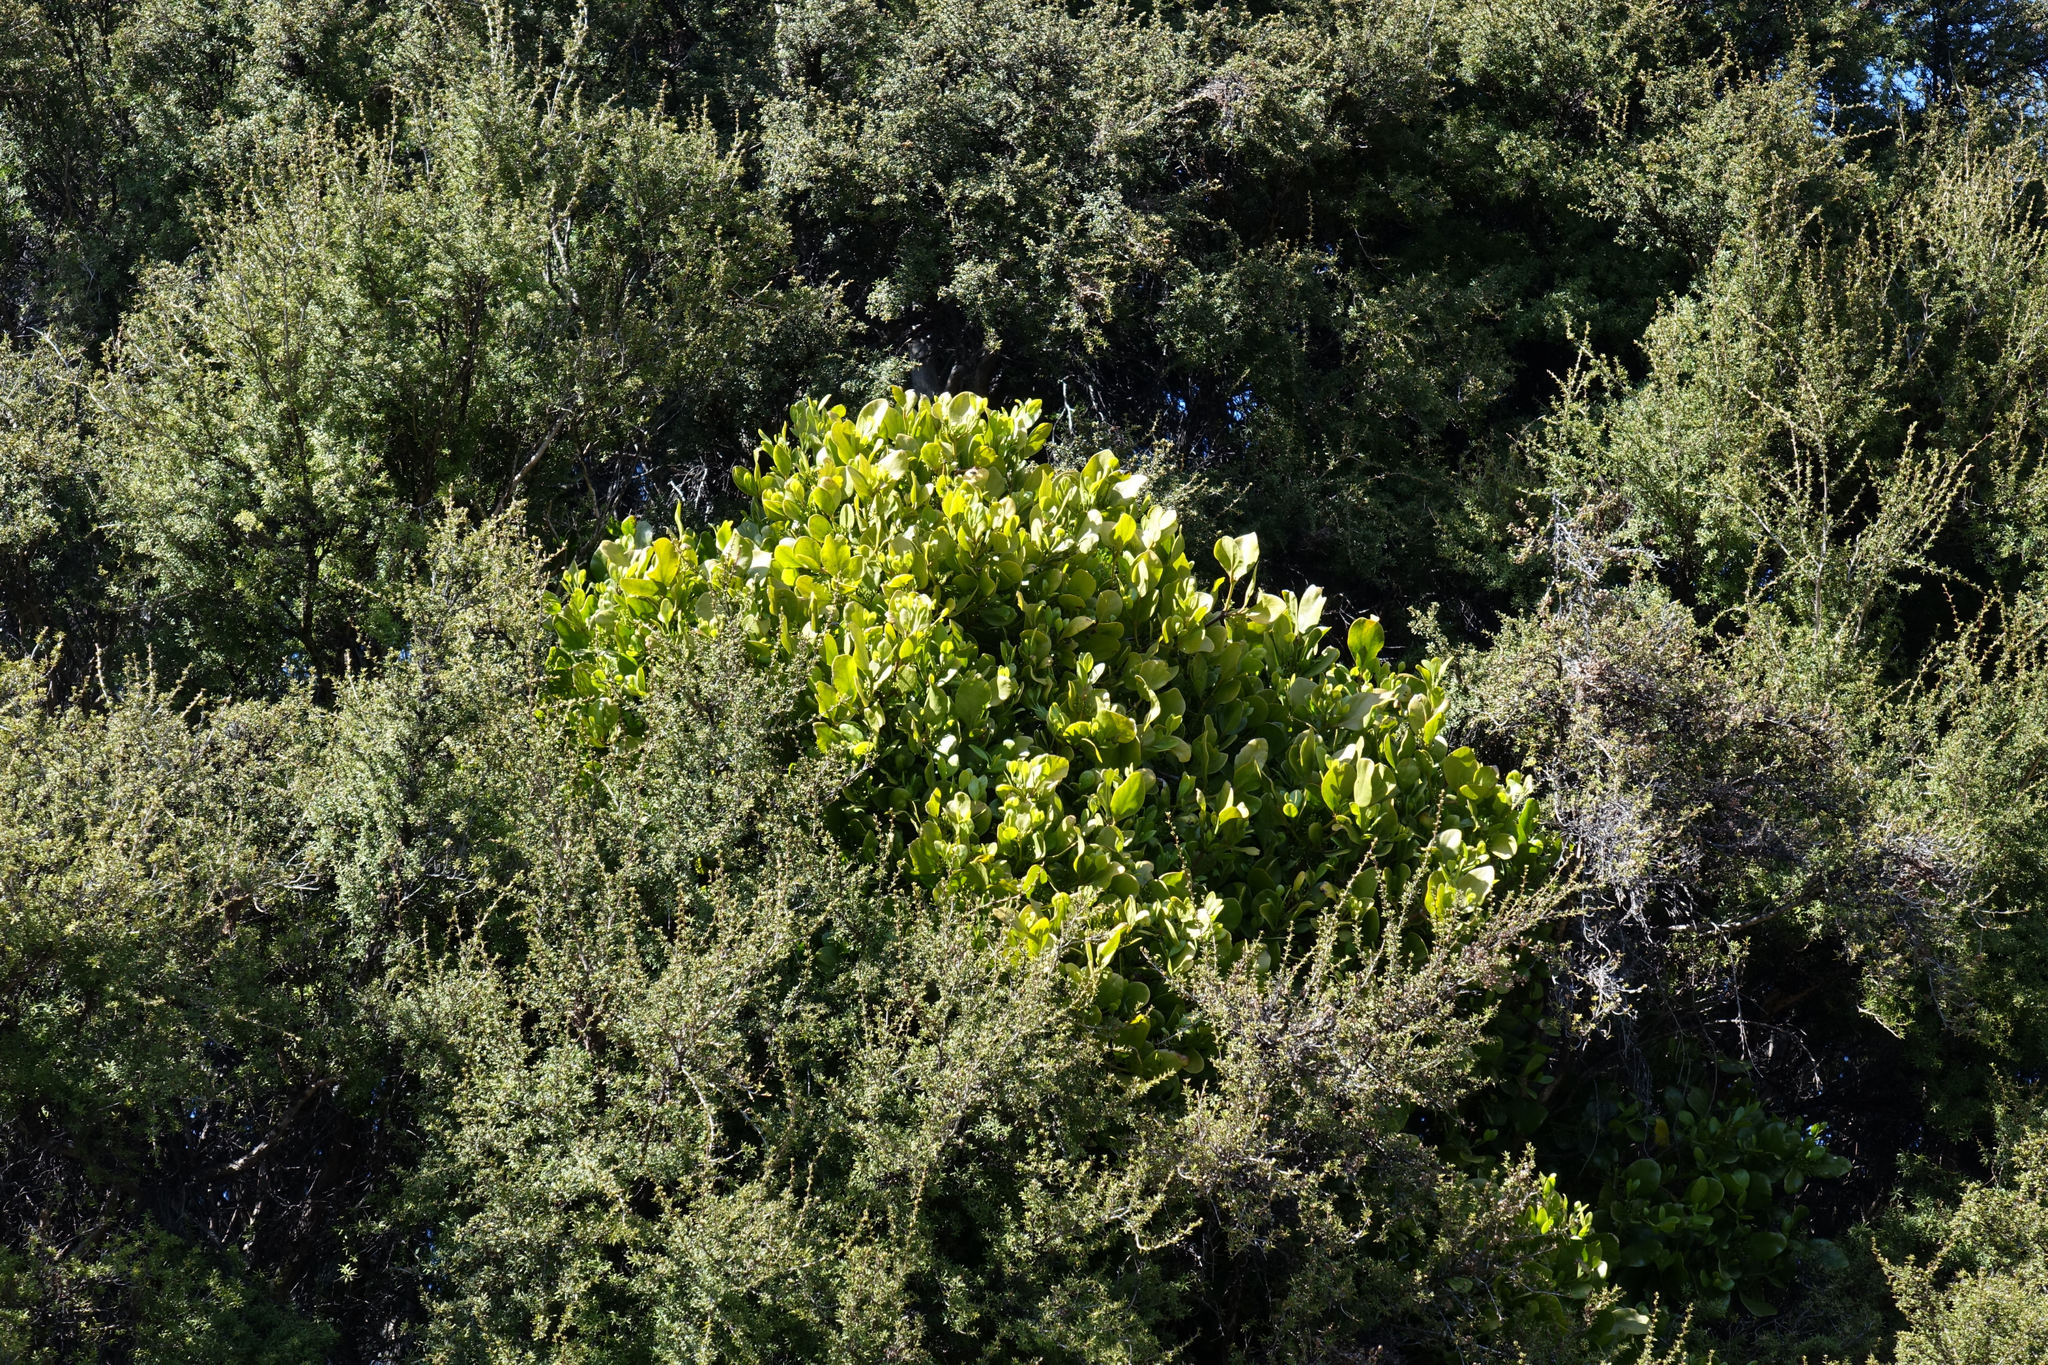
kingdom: Plantae
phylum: Tracheophyta
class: Magnoliopsida
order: Santalales
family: Loranthaceae
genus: Ileostylus
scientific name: Ileostylus micranthus
